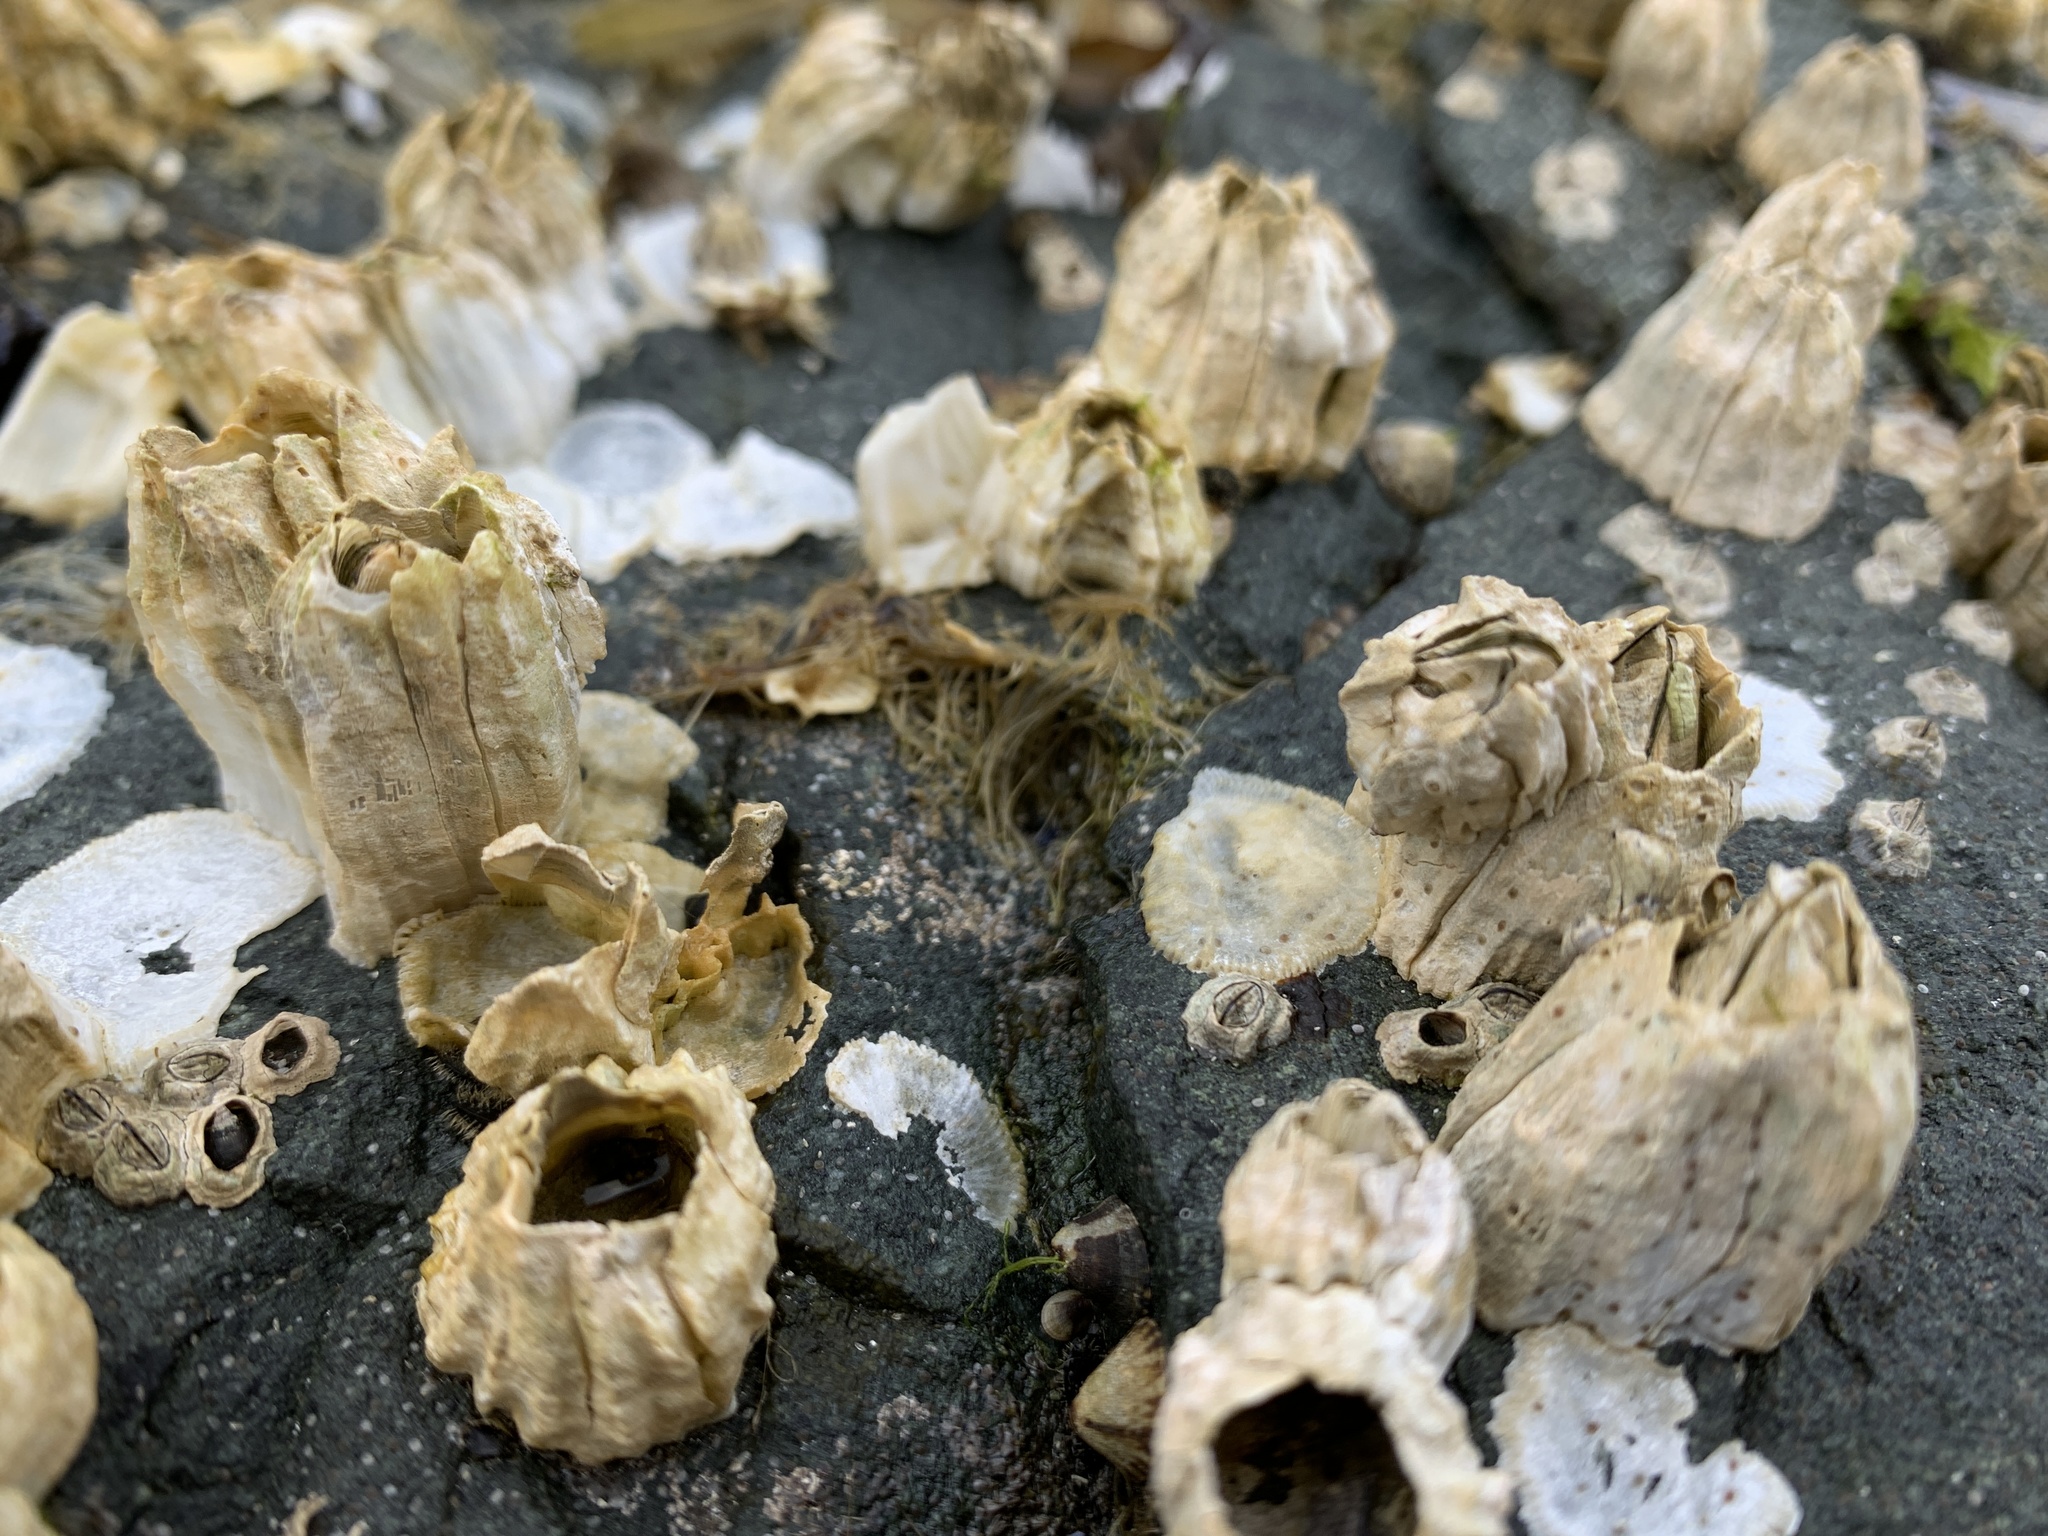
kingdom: Animalia
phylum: Arthropoda
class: Maxillopoda
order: Sessilia
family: Balanidae
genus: Balanus
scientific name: Balanus glandula
